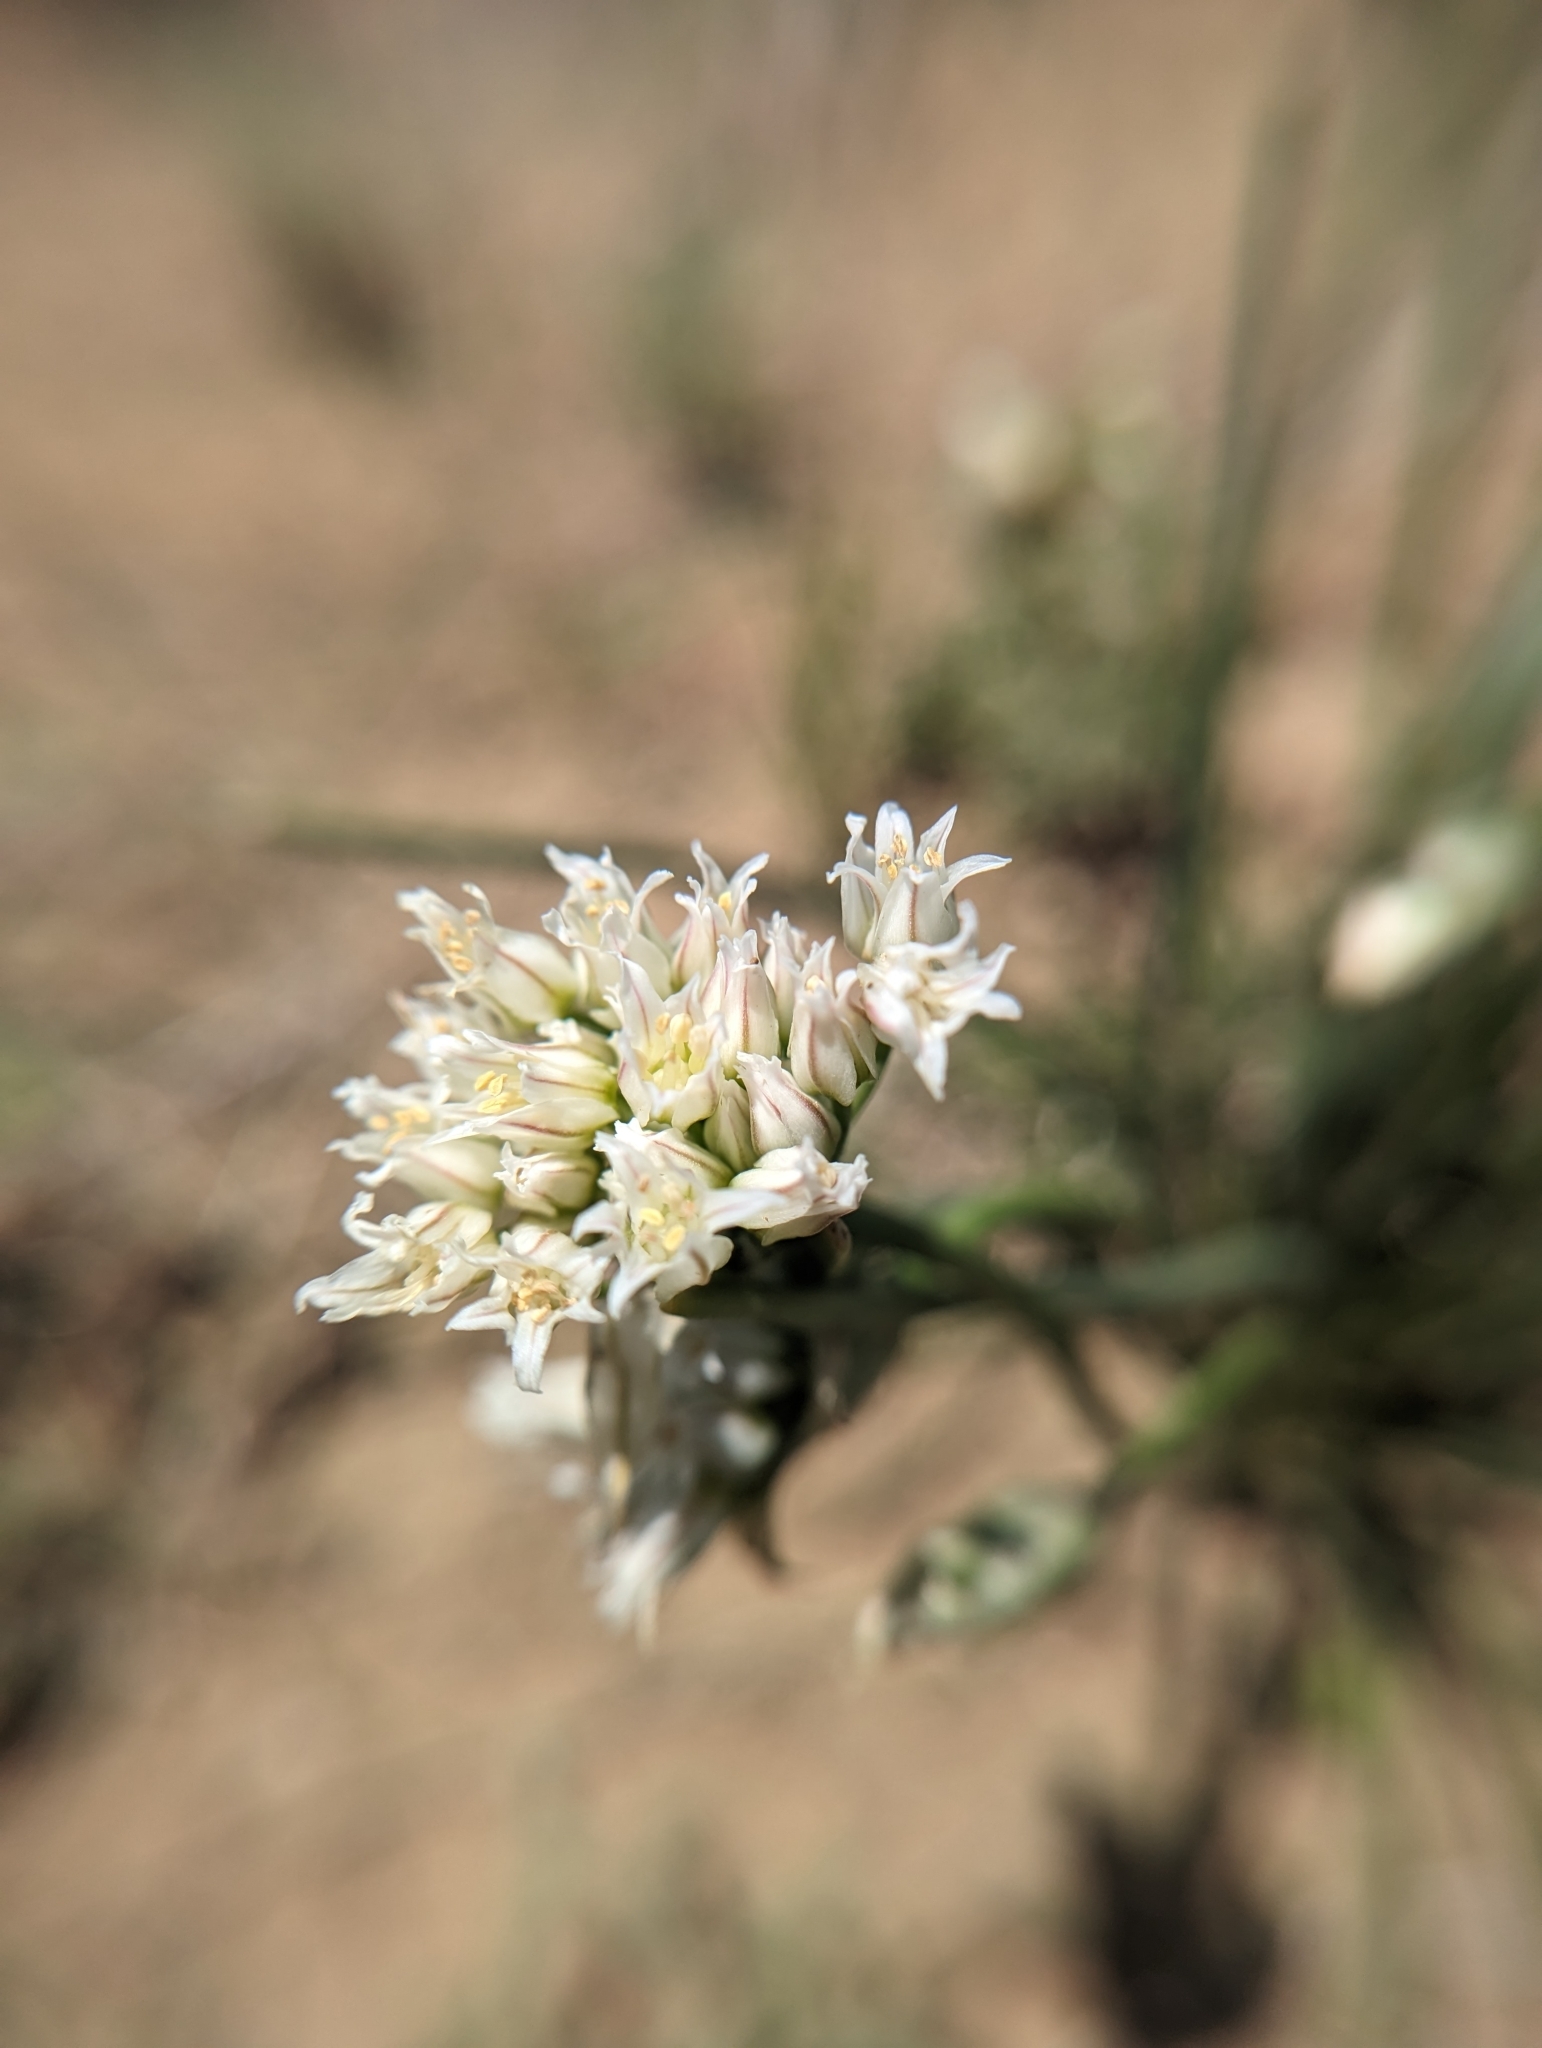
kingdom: Plantae
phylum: Tracheophyta
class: Liliopsida
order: Asparagales
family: Amaryllidaceae
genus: Allium
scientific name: Allium textile
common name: Prairie onion
